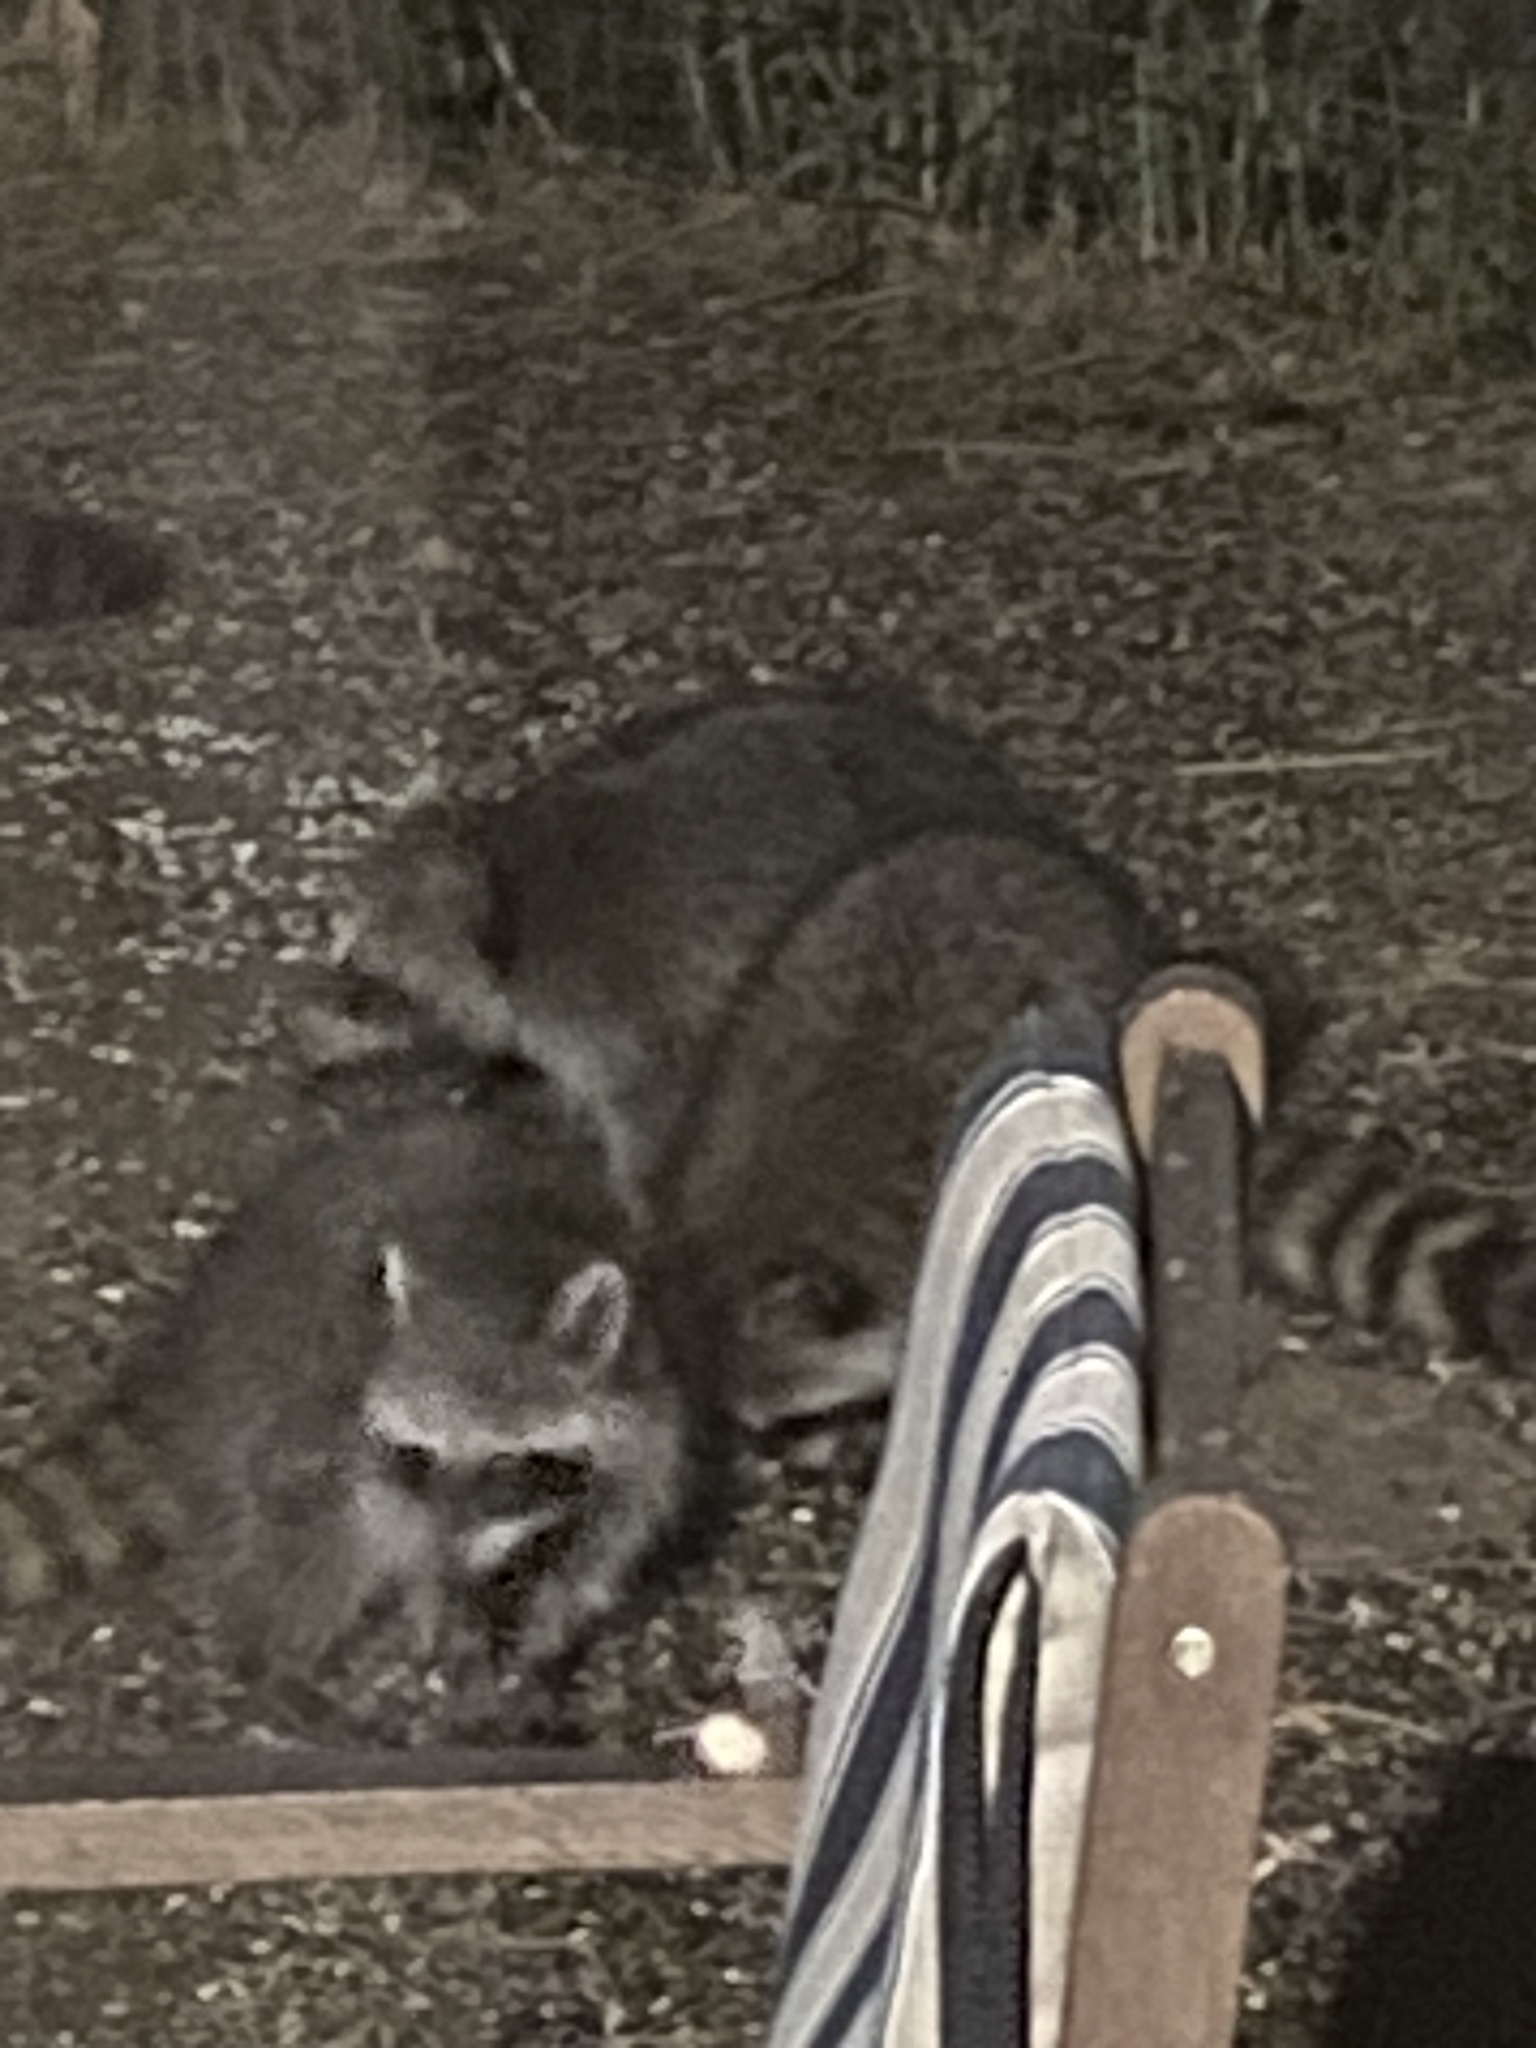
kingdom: Animalia
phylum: Chordata
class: Mammalia
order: Carnivora
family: Procyonidae
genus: Procyon
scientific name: Procyon lotor
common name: Raccoon
